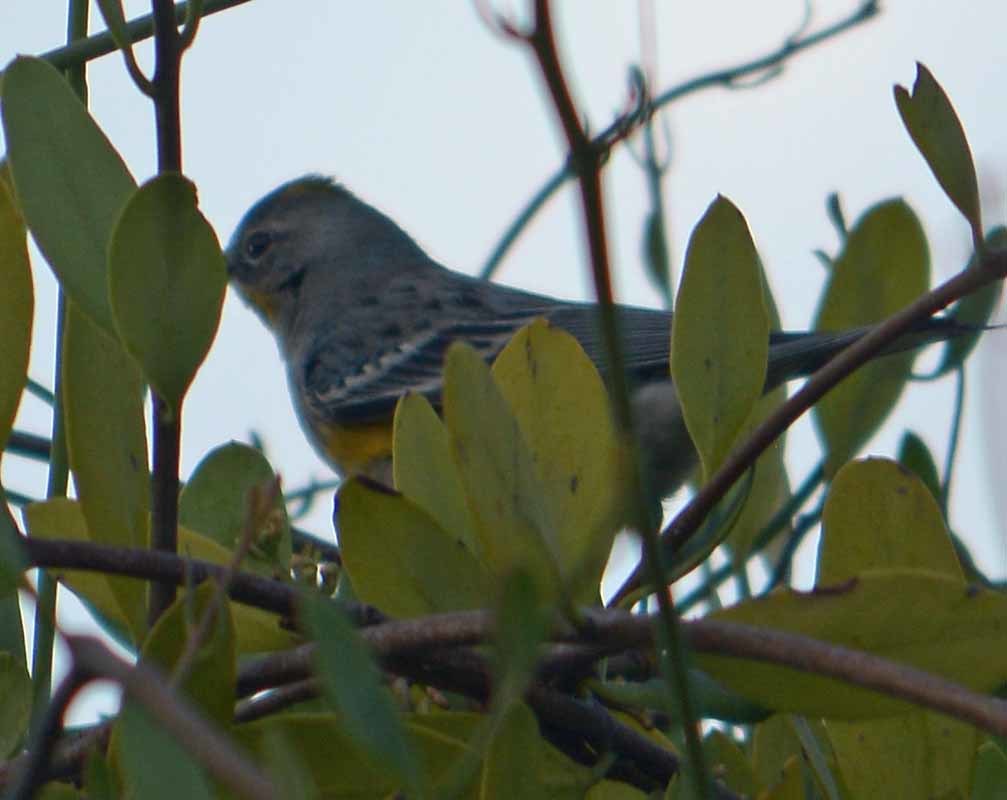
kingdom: Animalia
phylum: Chordata
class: Aves
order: Passeriformes
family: Parulidae
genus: Setophaga
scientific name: Setophaga coronata
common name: Myrtle warbler
